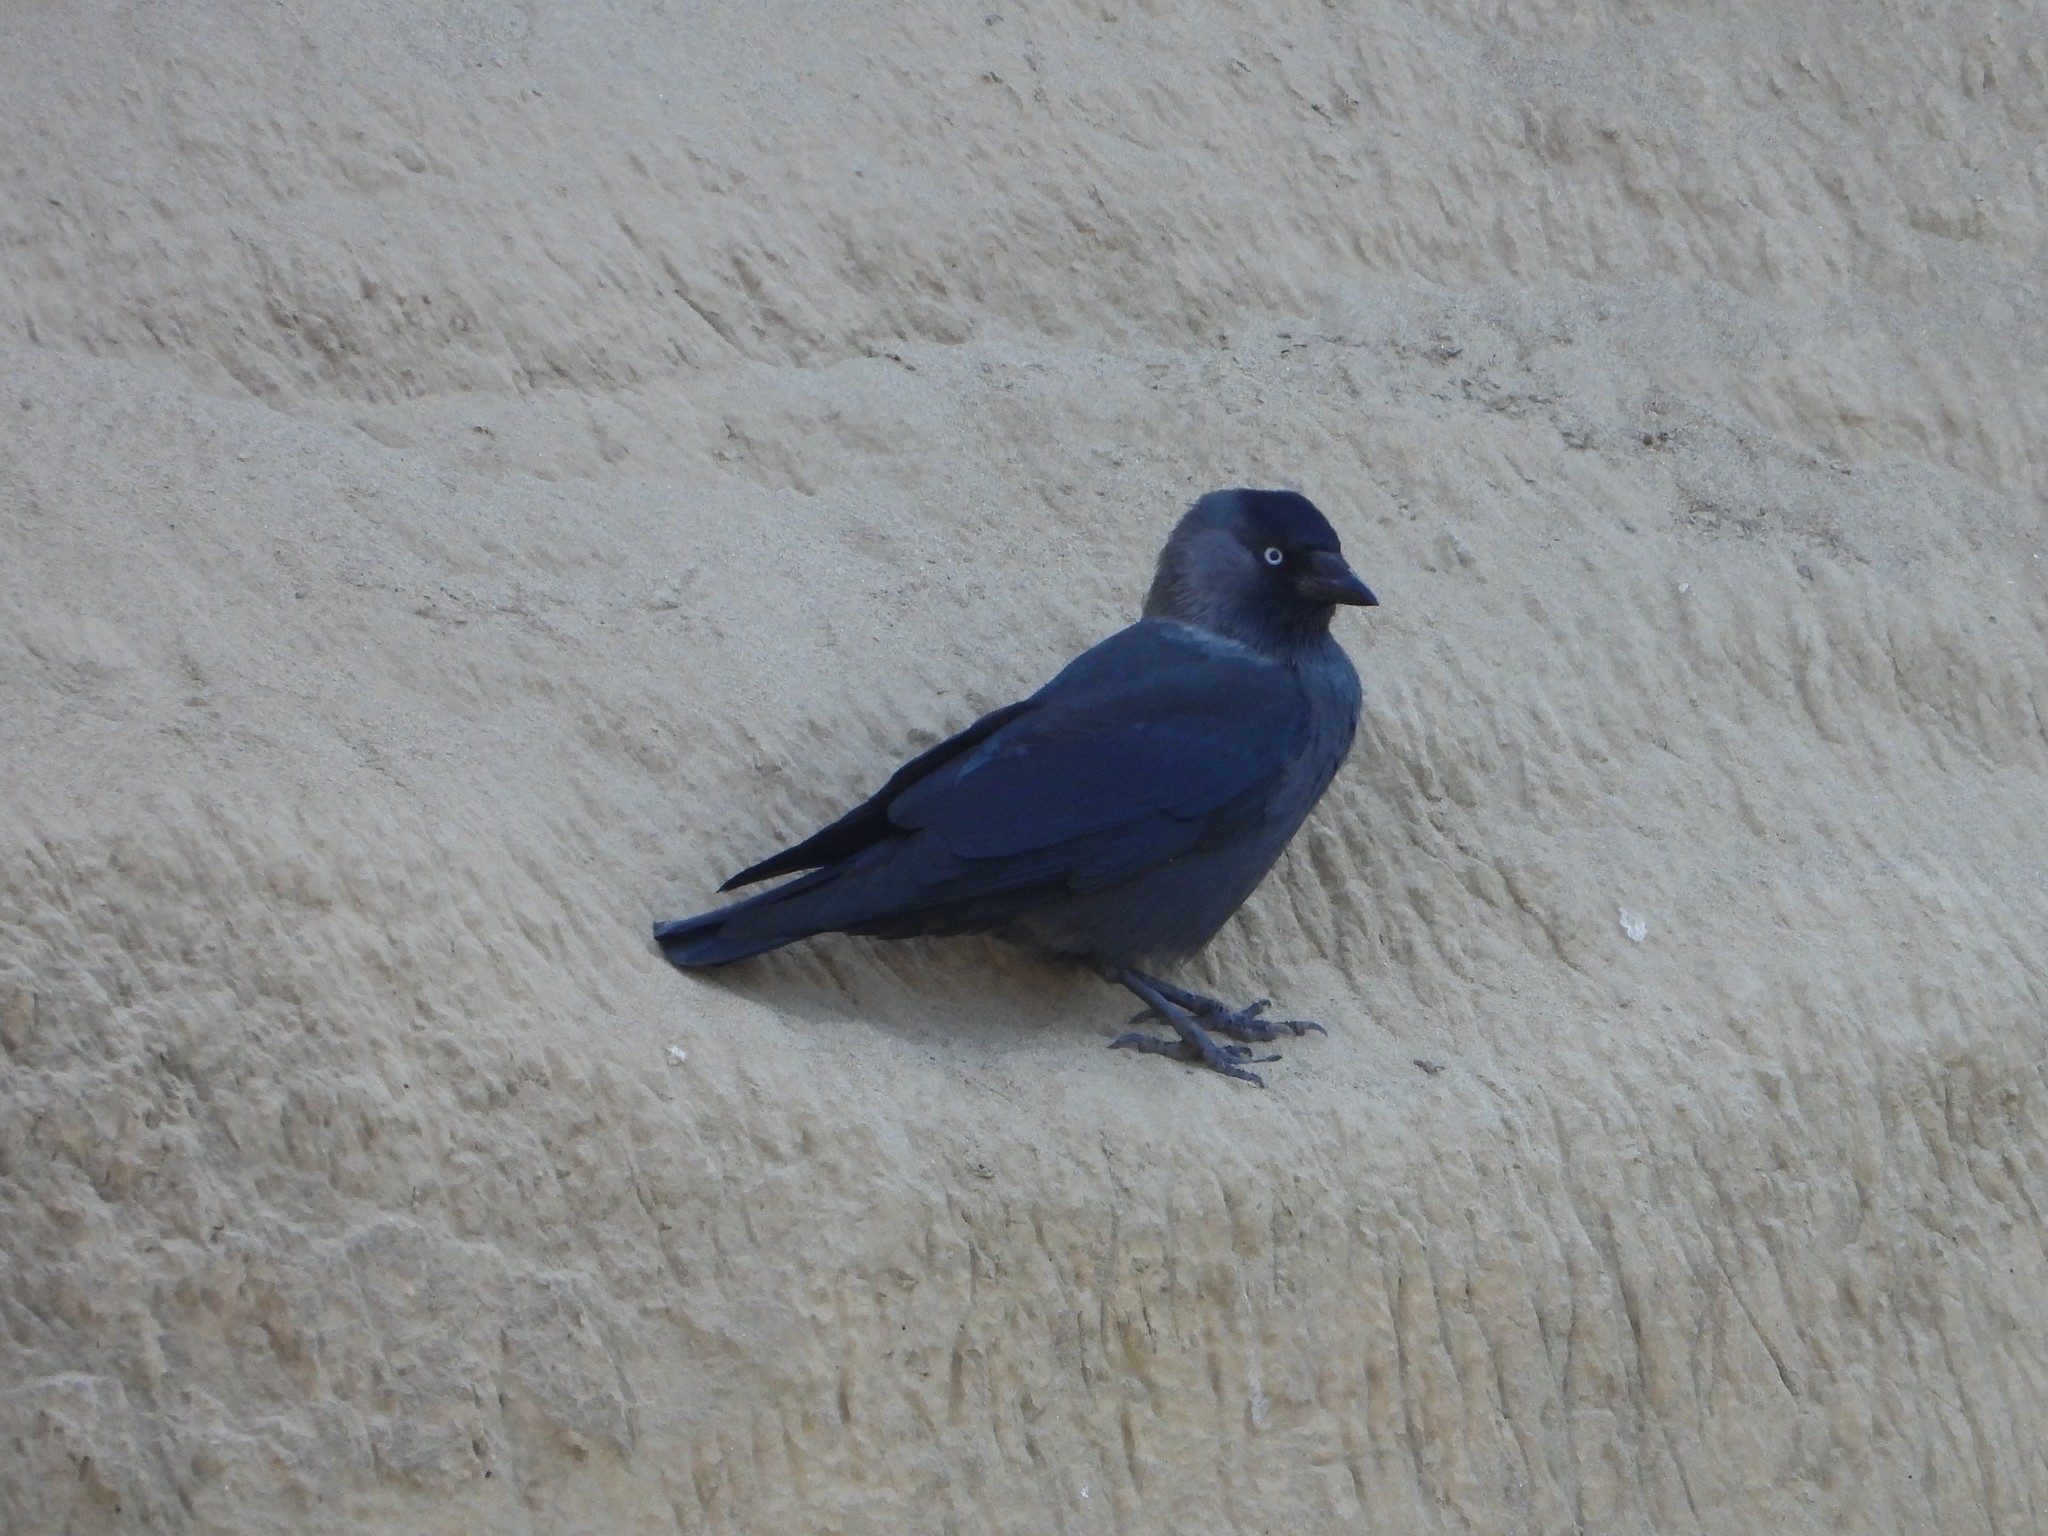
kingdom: Animalia
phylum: Chordata
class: Aves
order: Passeriformes
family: Corvidae
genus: Coloeus
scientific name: Coloeus monedula
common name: Western jackdaw
